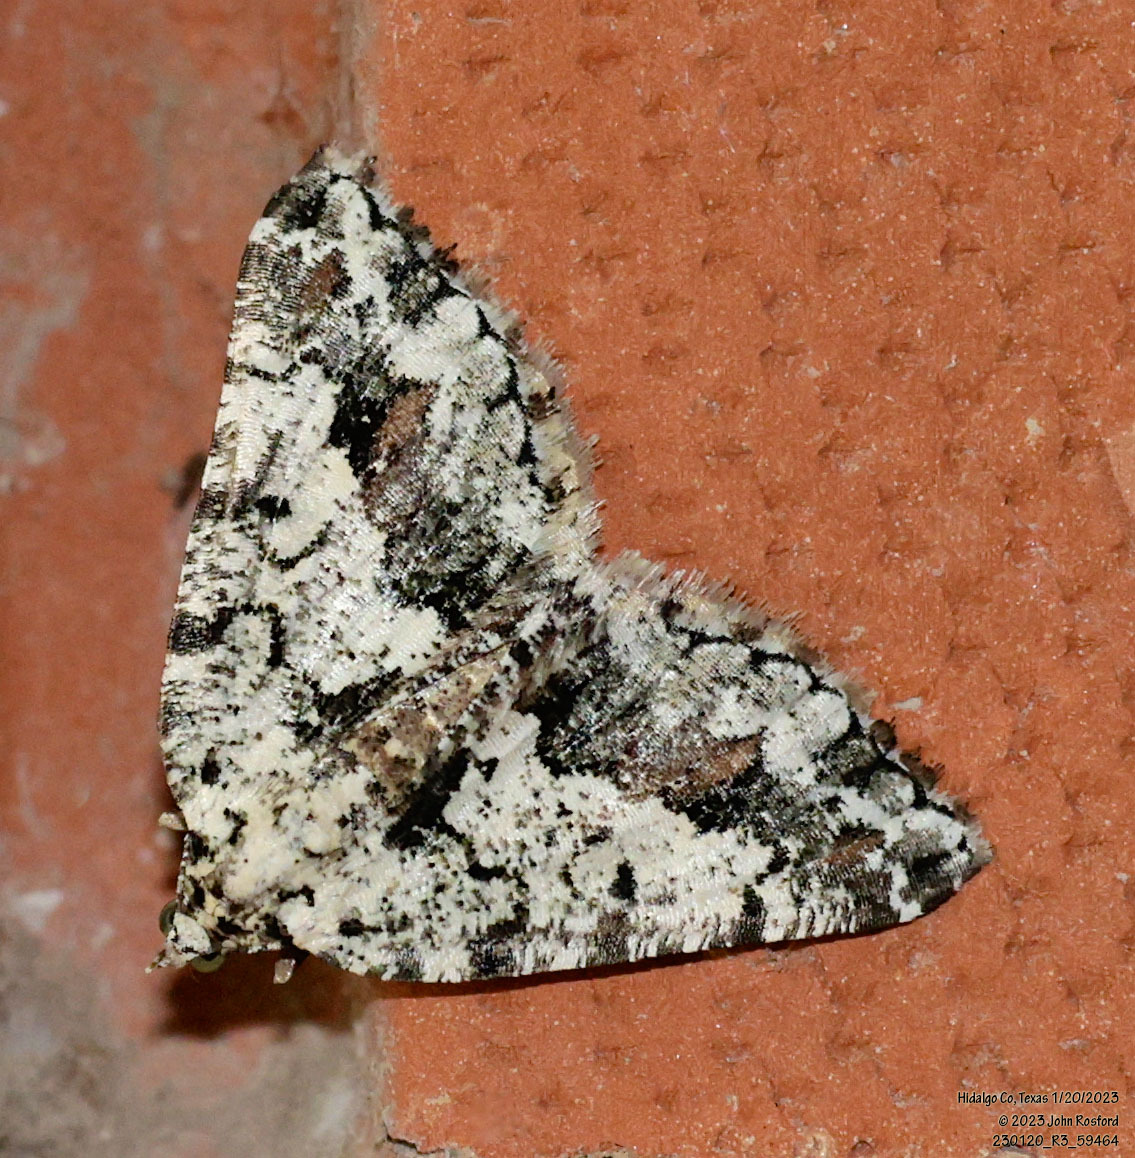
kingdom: Animalia
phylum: Arthropoda
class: Insecta
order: Lepidoptera
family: Geometridae
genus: Macaria
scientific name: Macaria graphidaria
